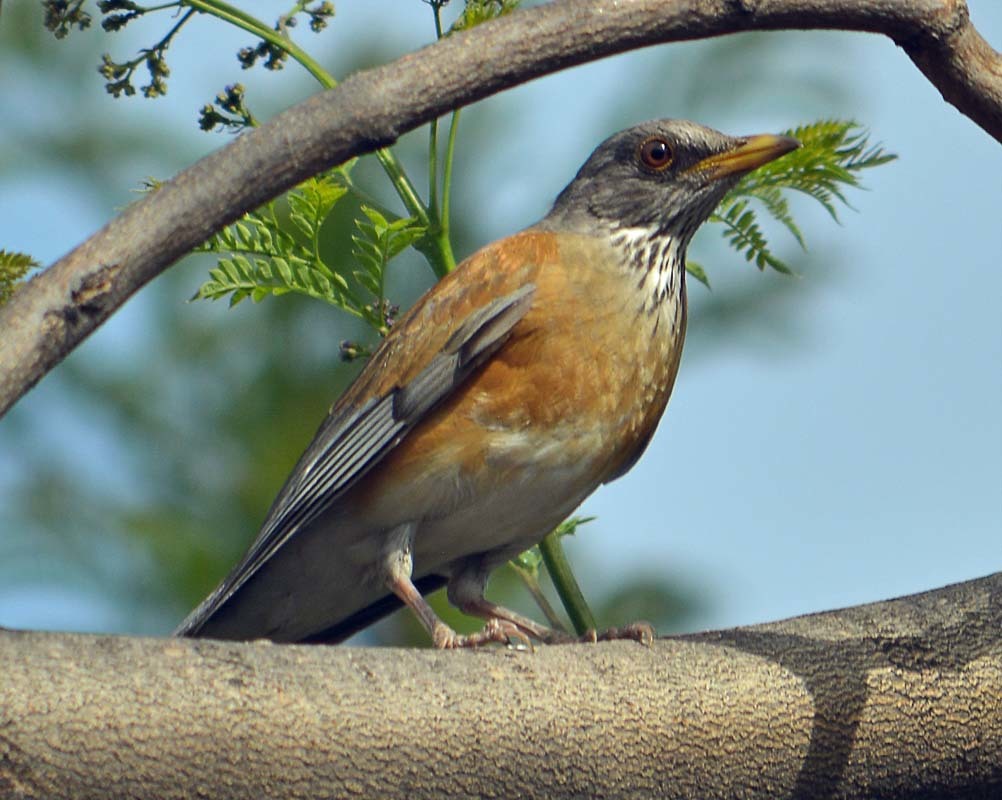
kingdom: Animalia
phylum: Chordata
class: Aves
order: Passeriformes
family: Turdidae
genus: Turdus
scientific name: Turdus rufopalliatus
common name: Rufous-backed robin
